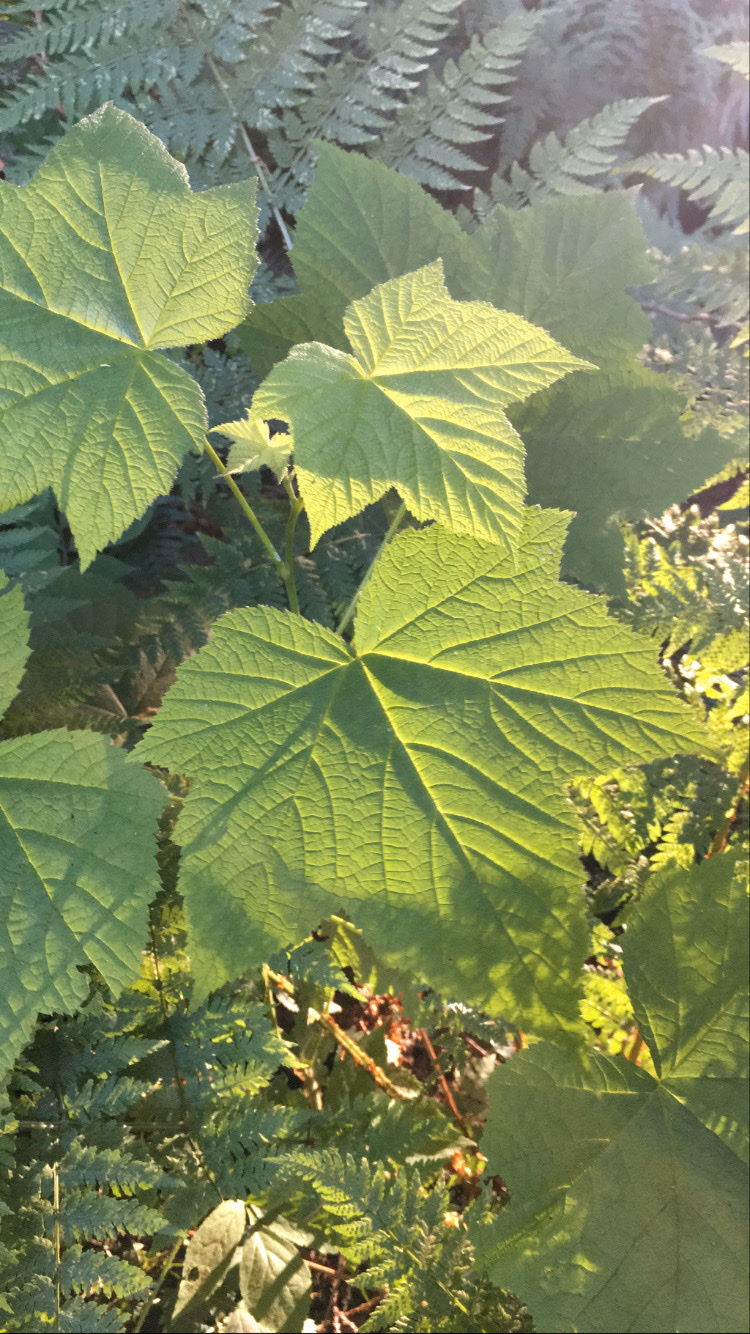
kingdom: Plantae
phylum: Tracheophyta
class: Magnoliopsida
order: Rosales
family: Rosaceae
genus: Rubus
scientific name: Rubus parviflorus
